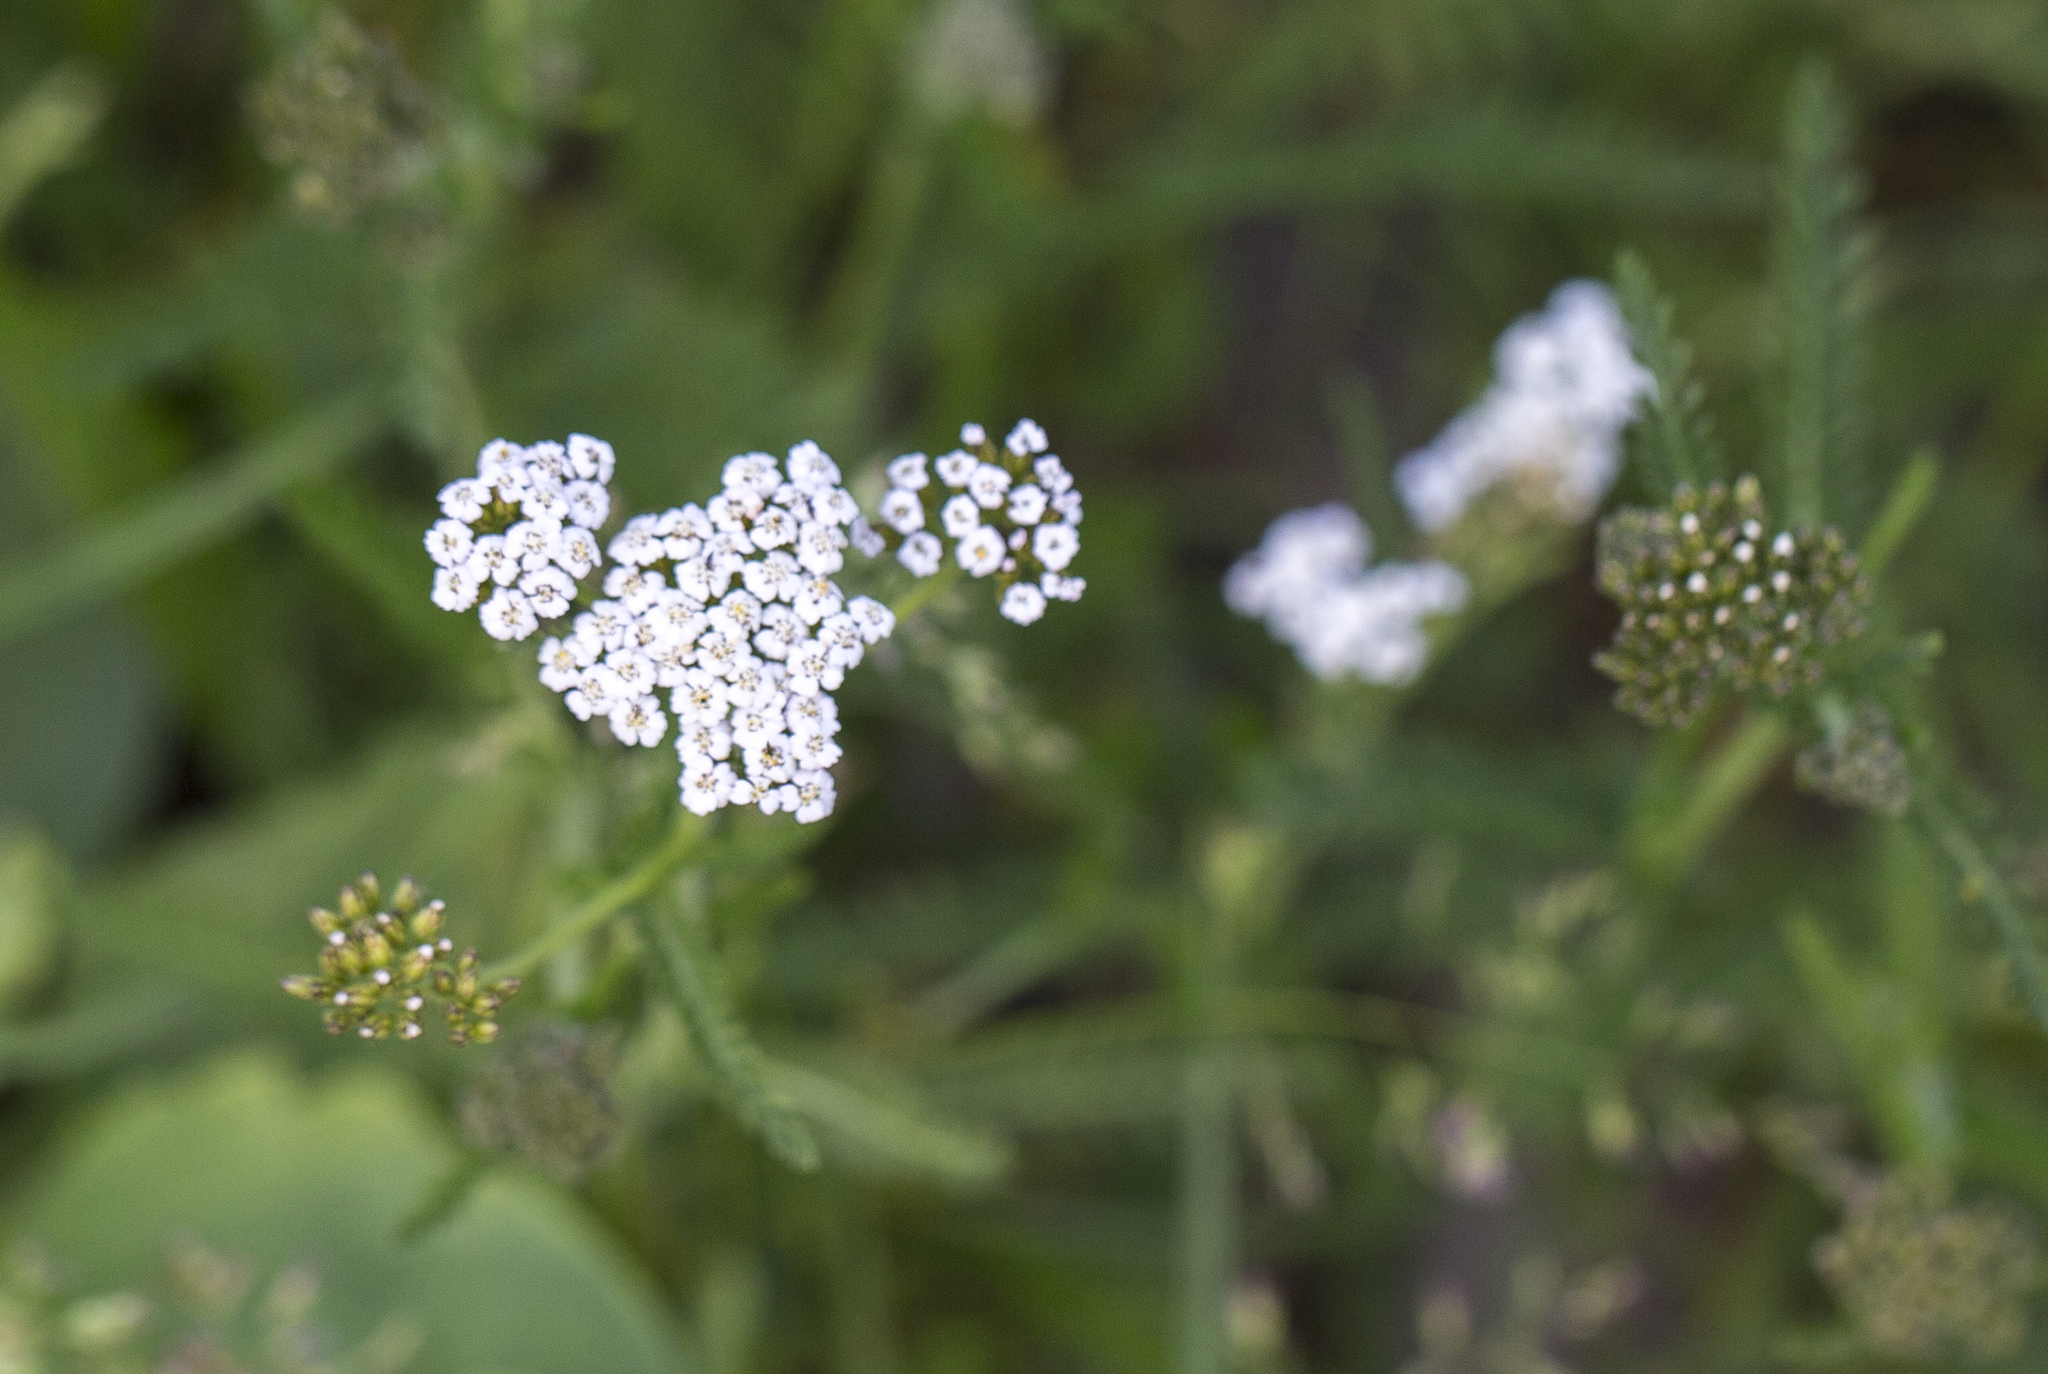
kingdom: Plantae
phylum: Tracheophyta
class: Magnoliopsida
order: Asterales
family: Asteraceae
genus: Achillea
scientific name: Achillea millefolium
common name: Yarrow
